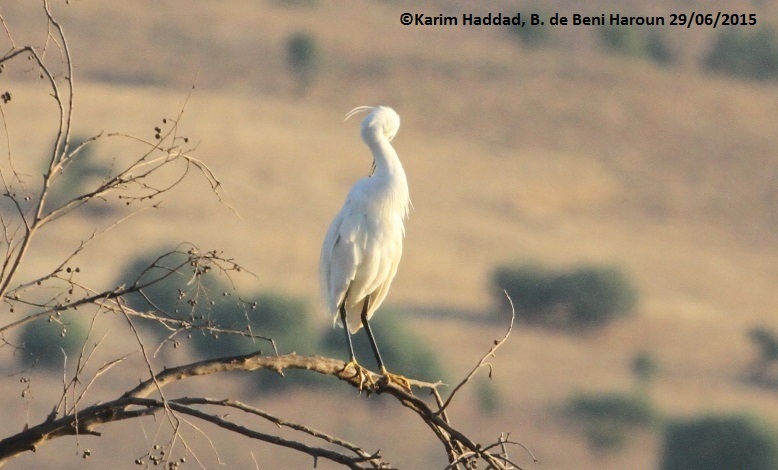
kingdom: Animalia
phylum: Chordata
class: Aves
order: Pelecaniformes
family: Ardeidae
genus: Egretta
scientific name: Egretta garzetta
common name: Little egret
